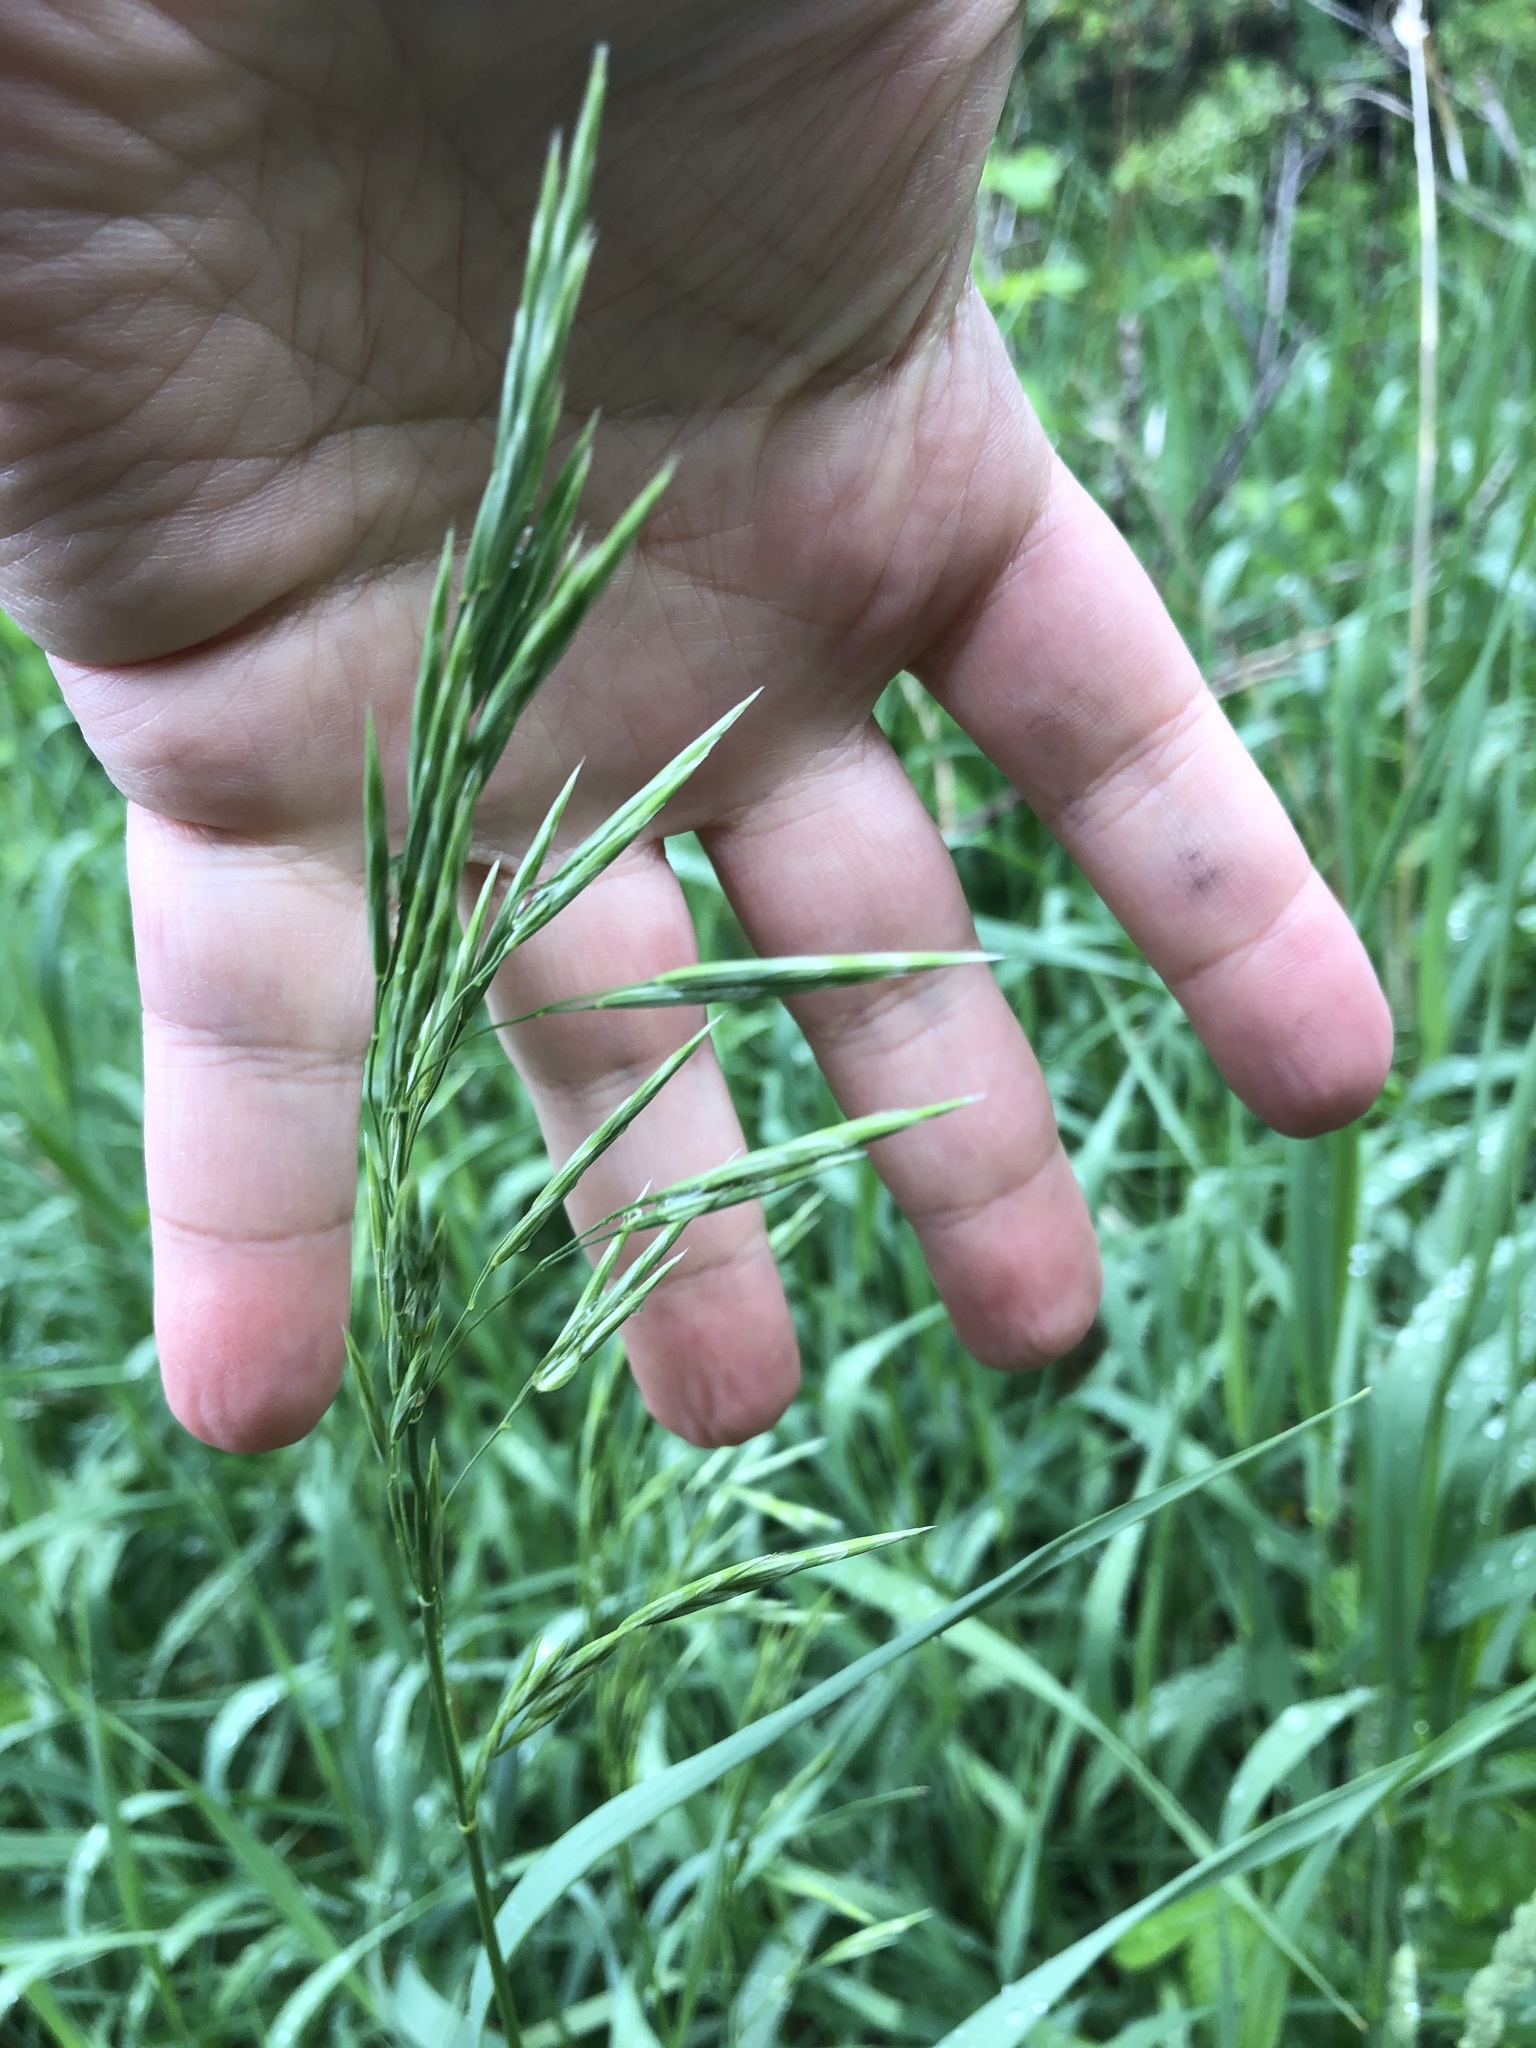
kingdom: Plantae
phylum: Tracheophyta
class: Liliopsida
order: Poales
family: Poaceae
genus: Bromus
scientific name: Bromus inermis
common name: Smooth brome
